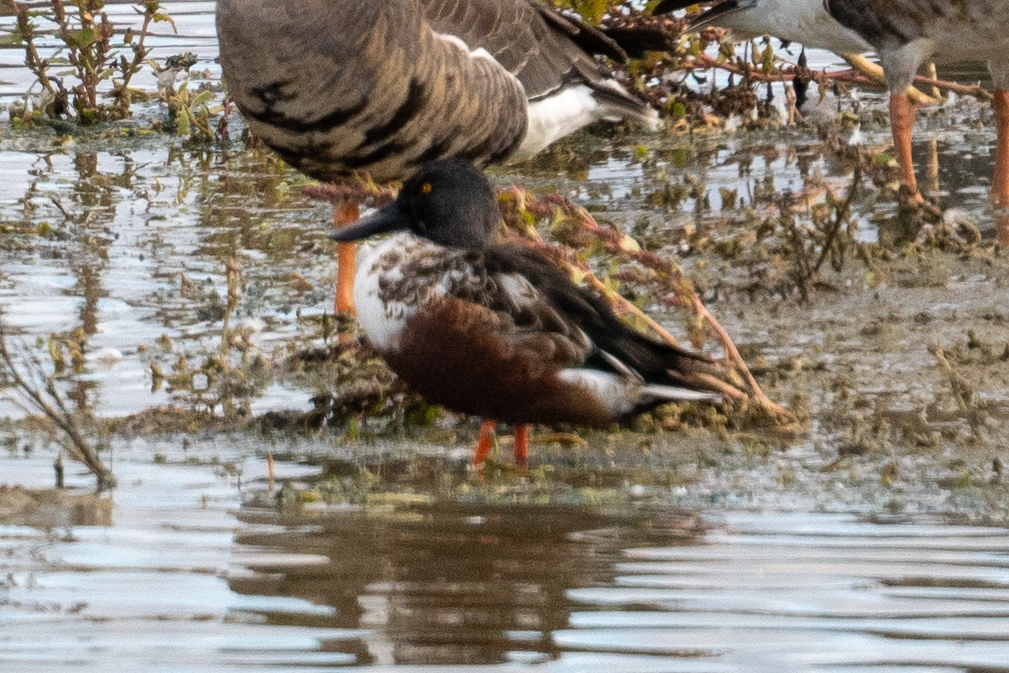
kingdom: Animalia
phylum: Chordata
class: Aves
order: Anseriformes
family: Anatidae
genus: Spatula
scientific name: Spatula clypeata
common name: Northern shoveler
